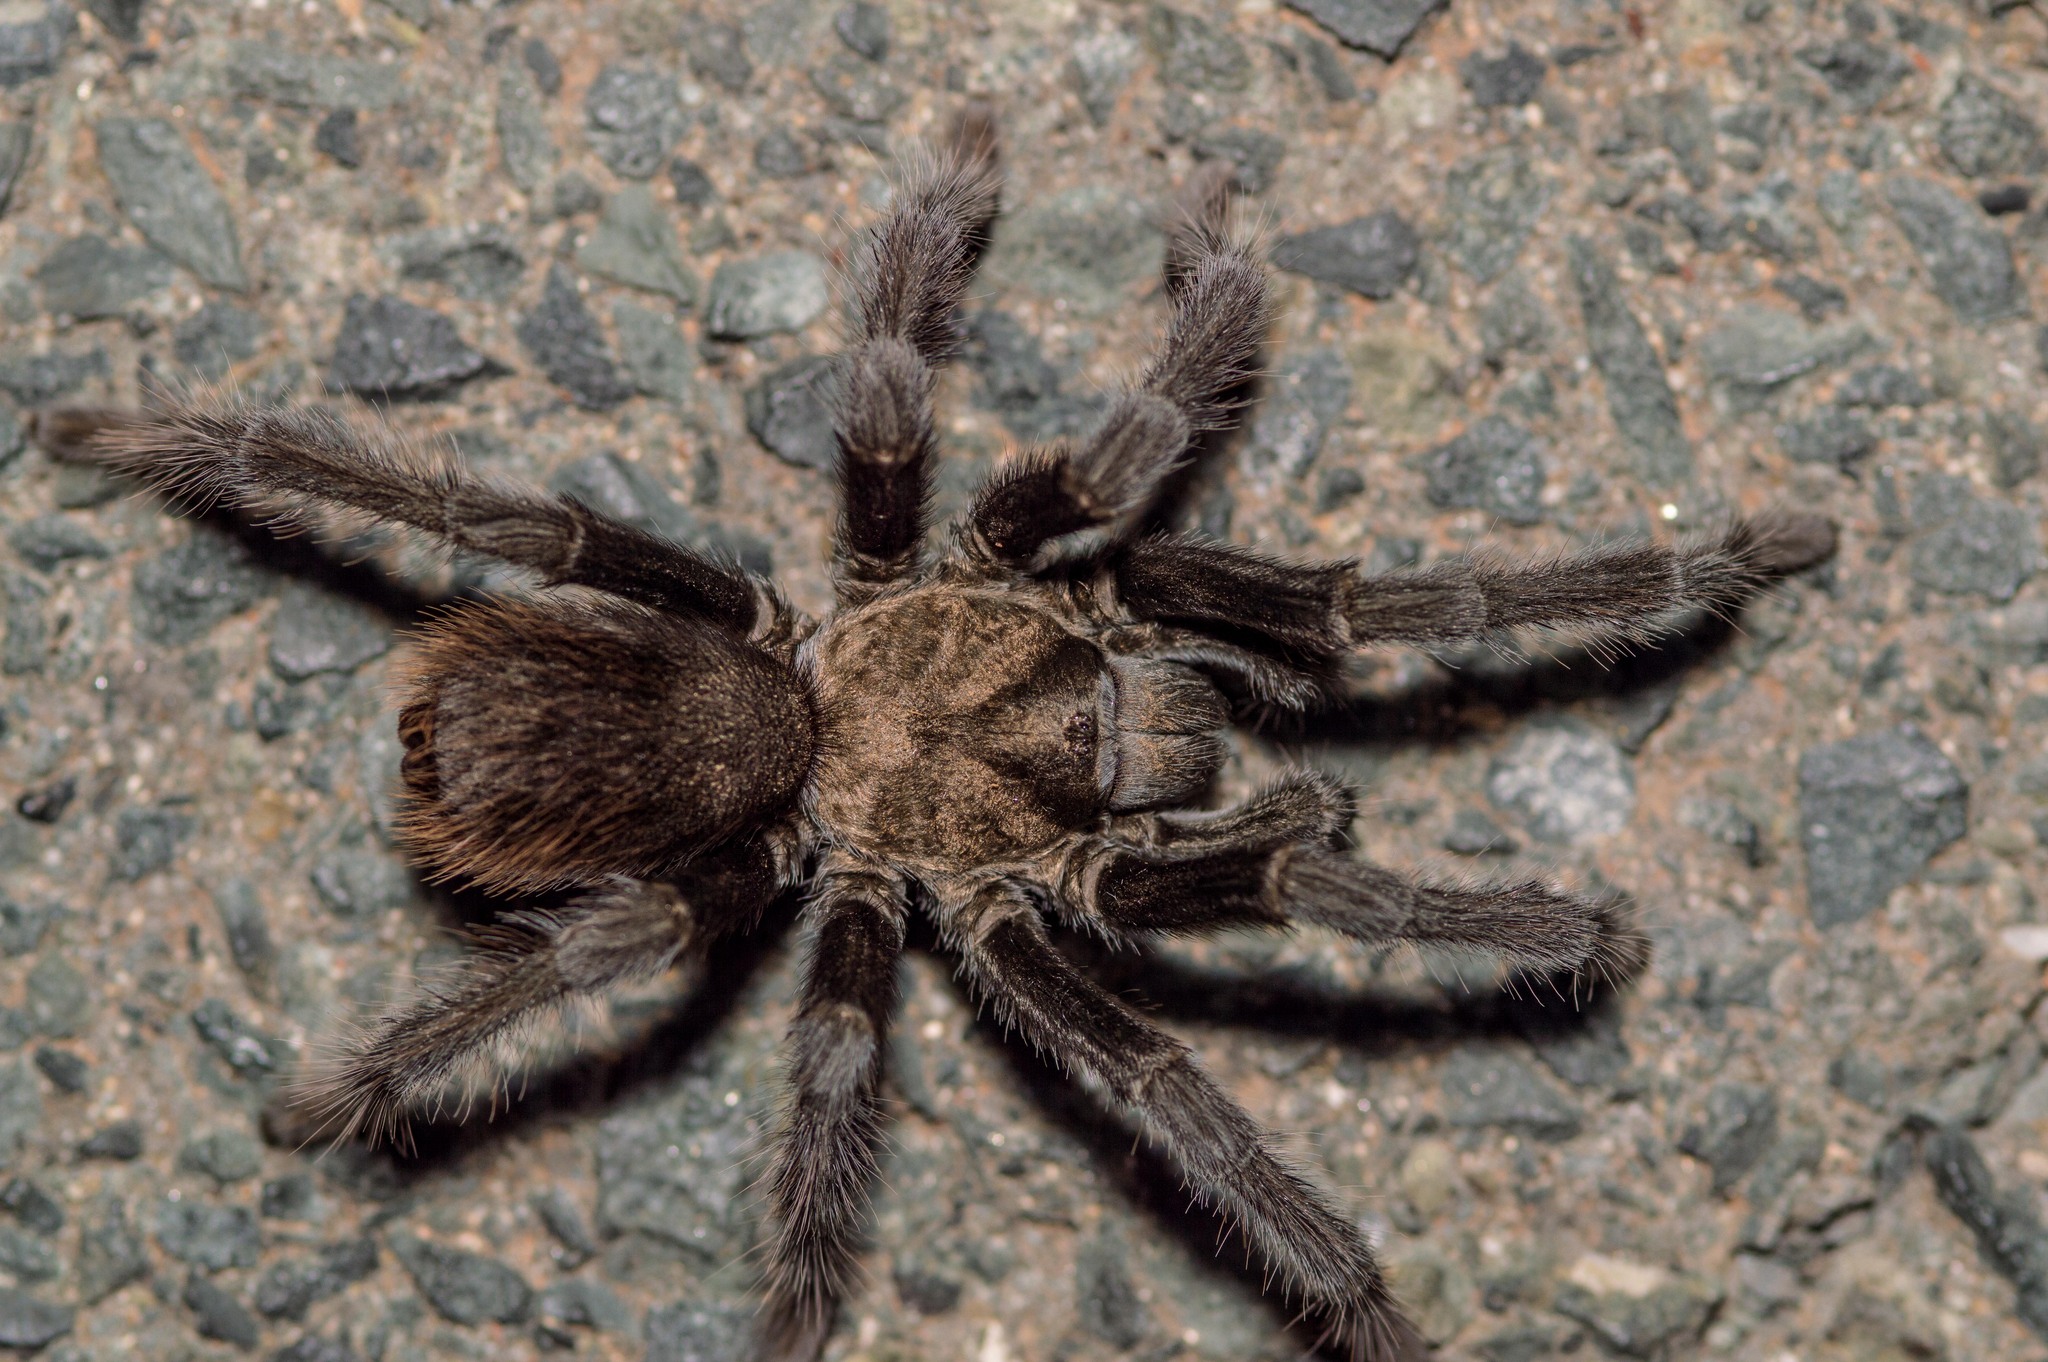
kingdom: Animalia
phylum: Arthropoda
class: Arachnida
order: Araneae
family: Theraphosidae
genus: Aphonopelma
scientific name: Aphonopelma iodius
